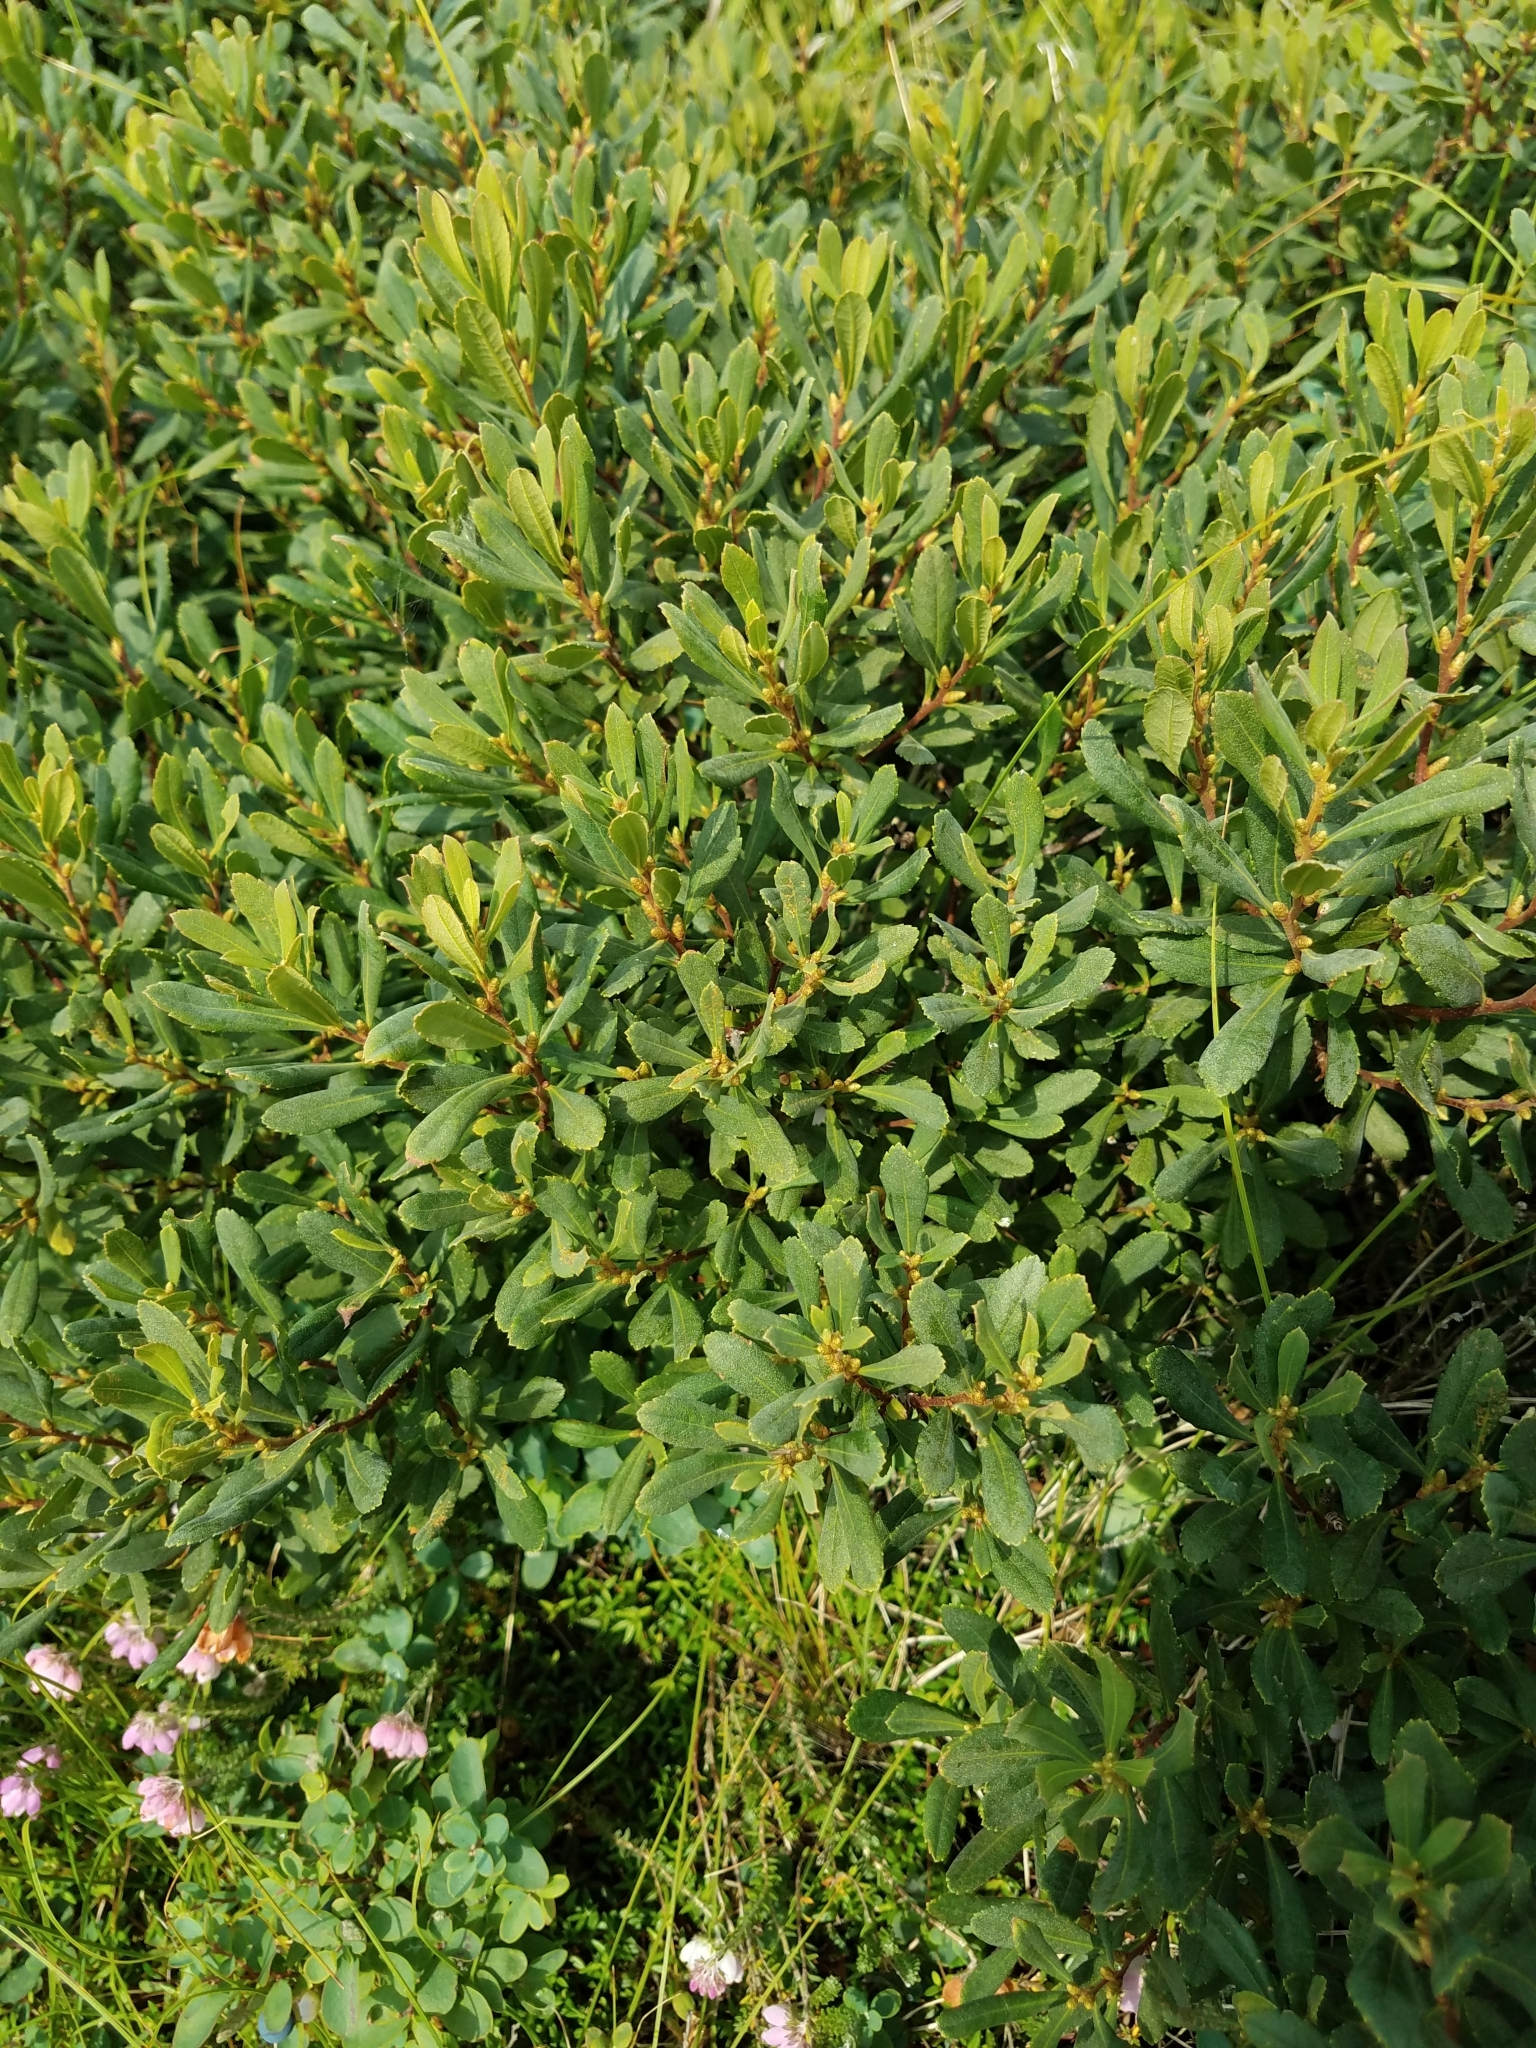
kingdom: Plantae
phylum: Tracheophyta
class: Magnoliopsida
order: Fagales
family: Myricaceae
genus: Myrica
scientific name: Myrica gale
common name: Sweet gale
